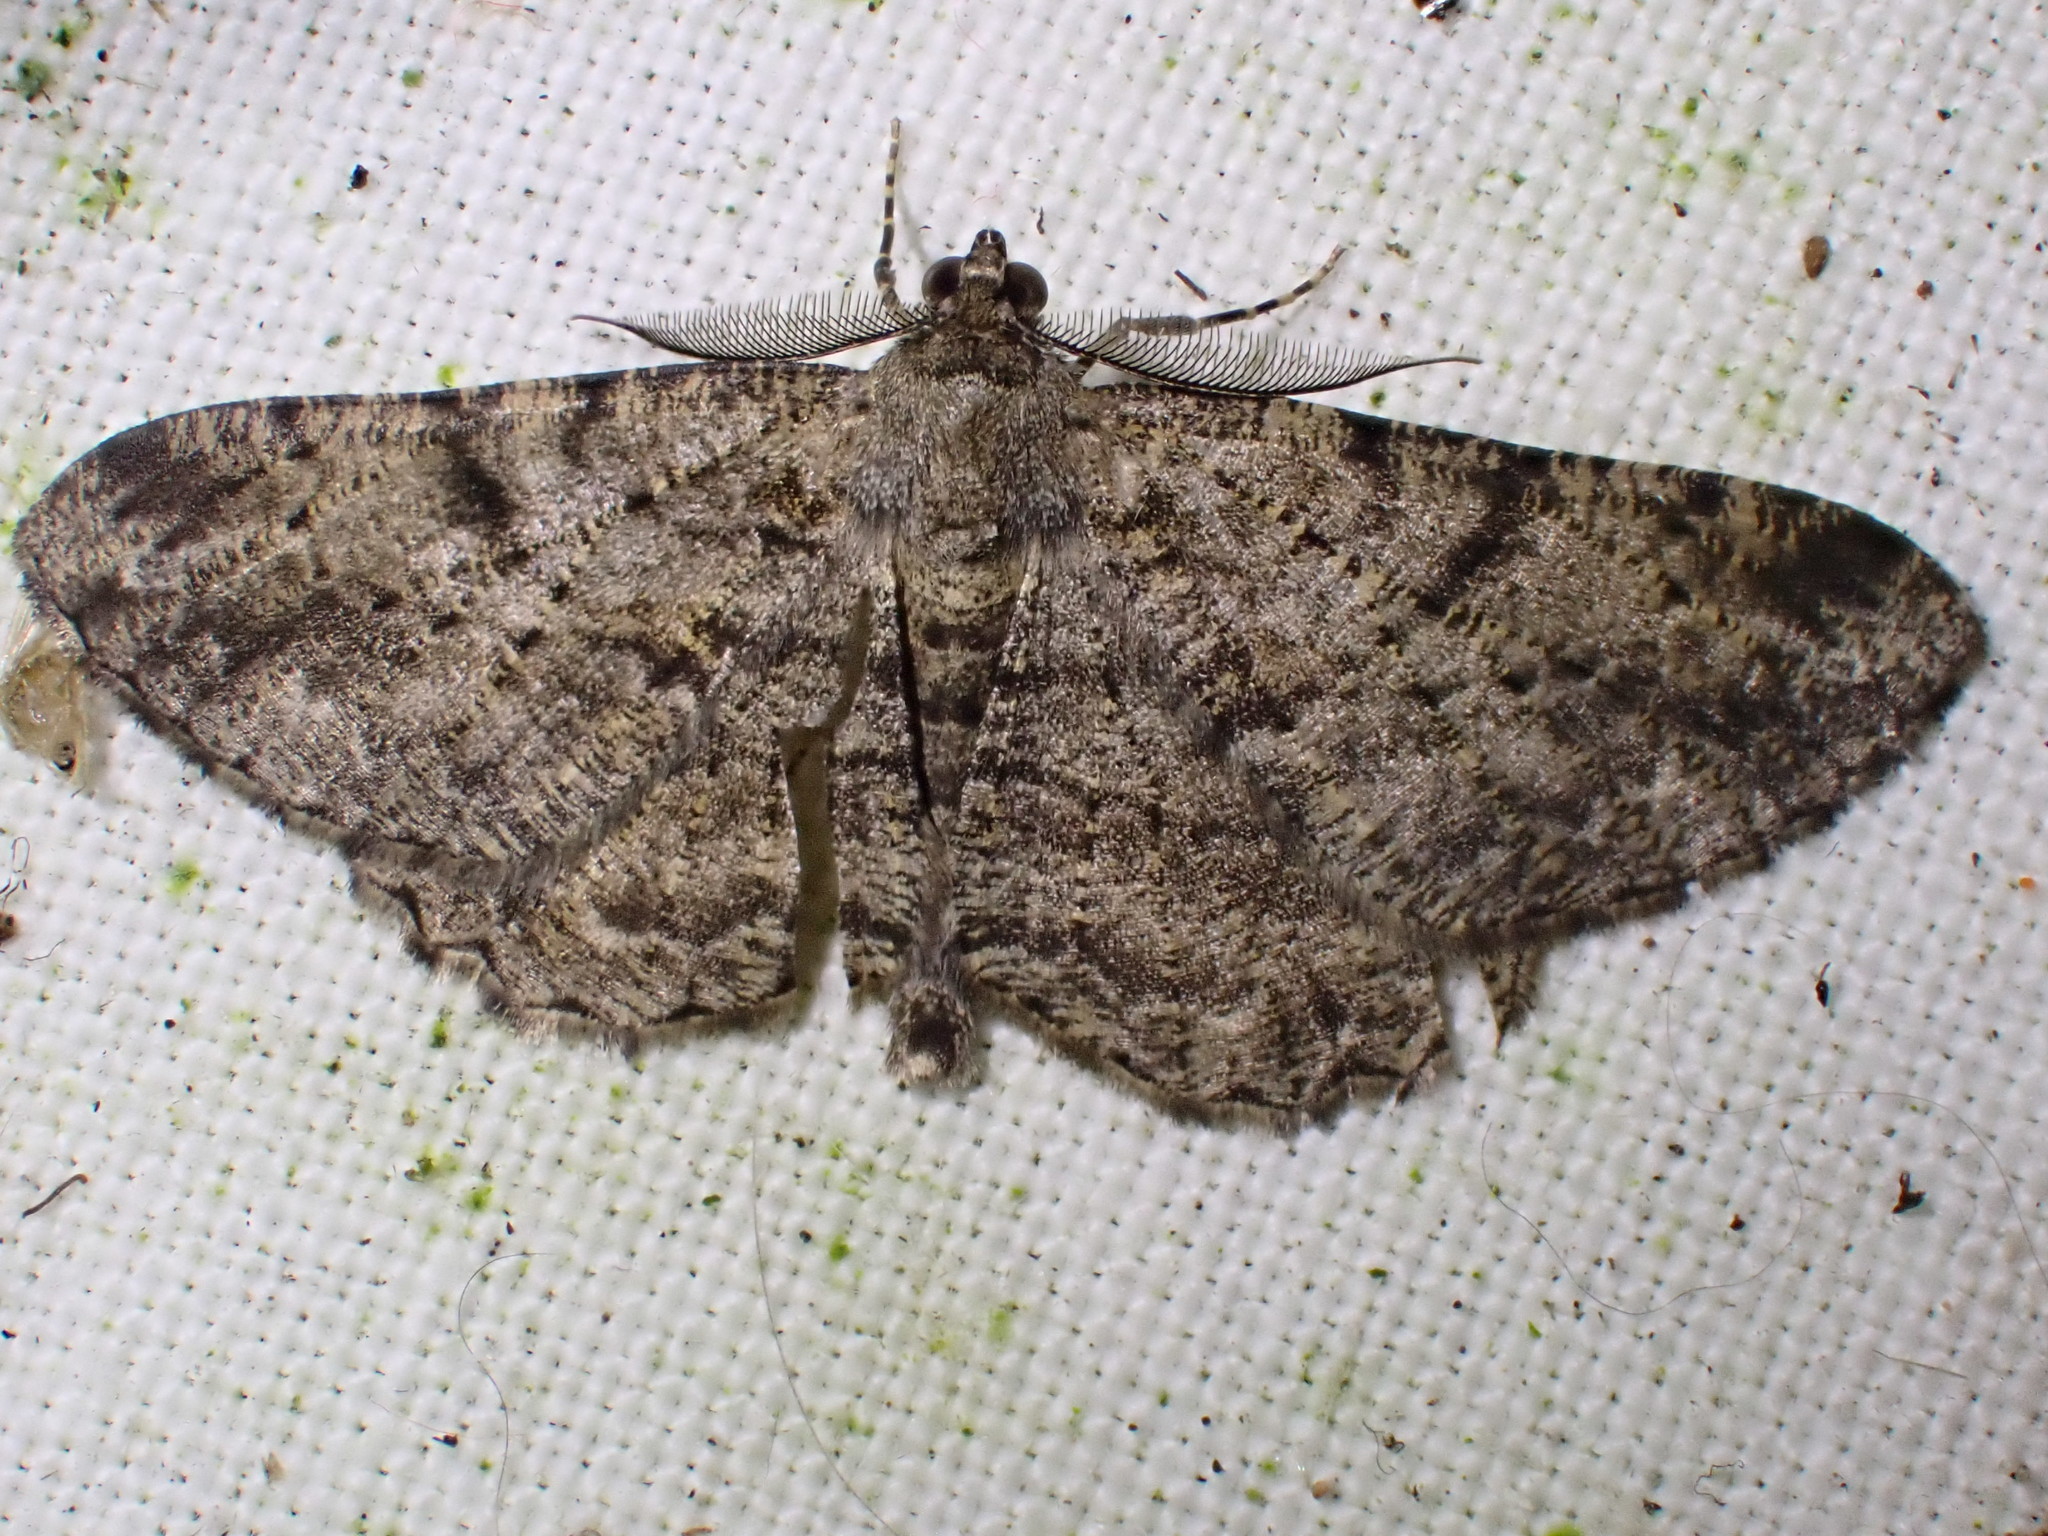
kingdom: Animalia
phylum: Arthropoda
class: Insecta
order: Lepidoptera
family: Geometridae
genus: Peribatodes
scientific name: Peribatodes rhomboidaria
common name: Willow beauty
